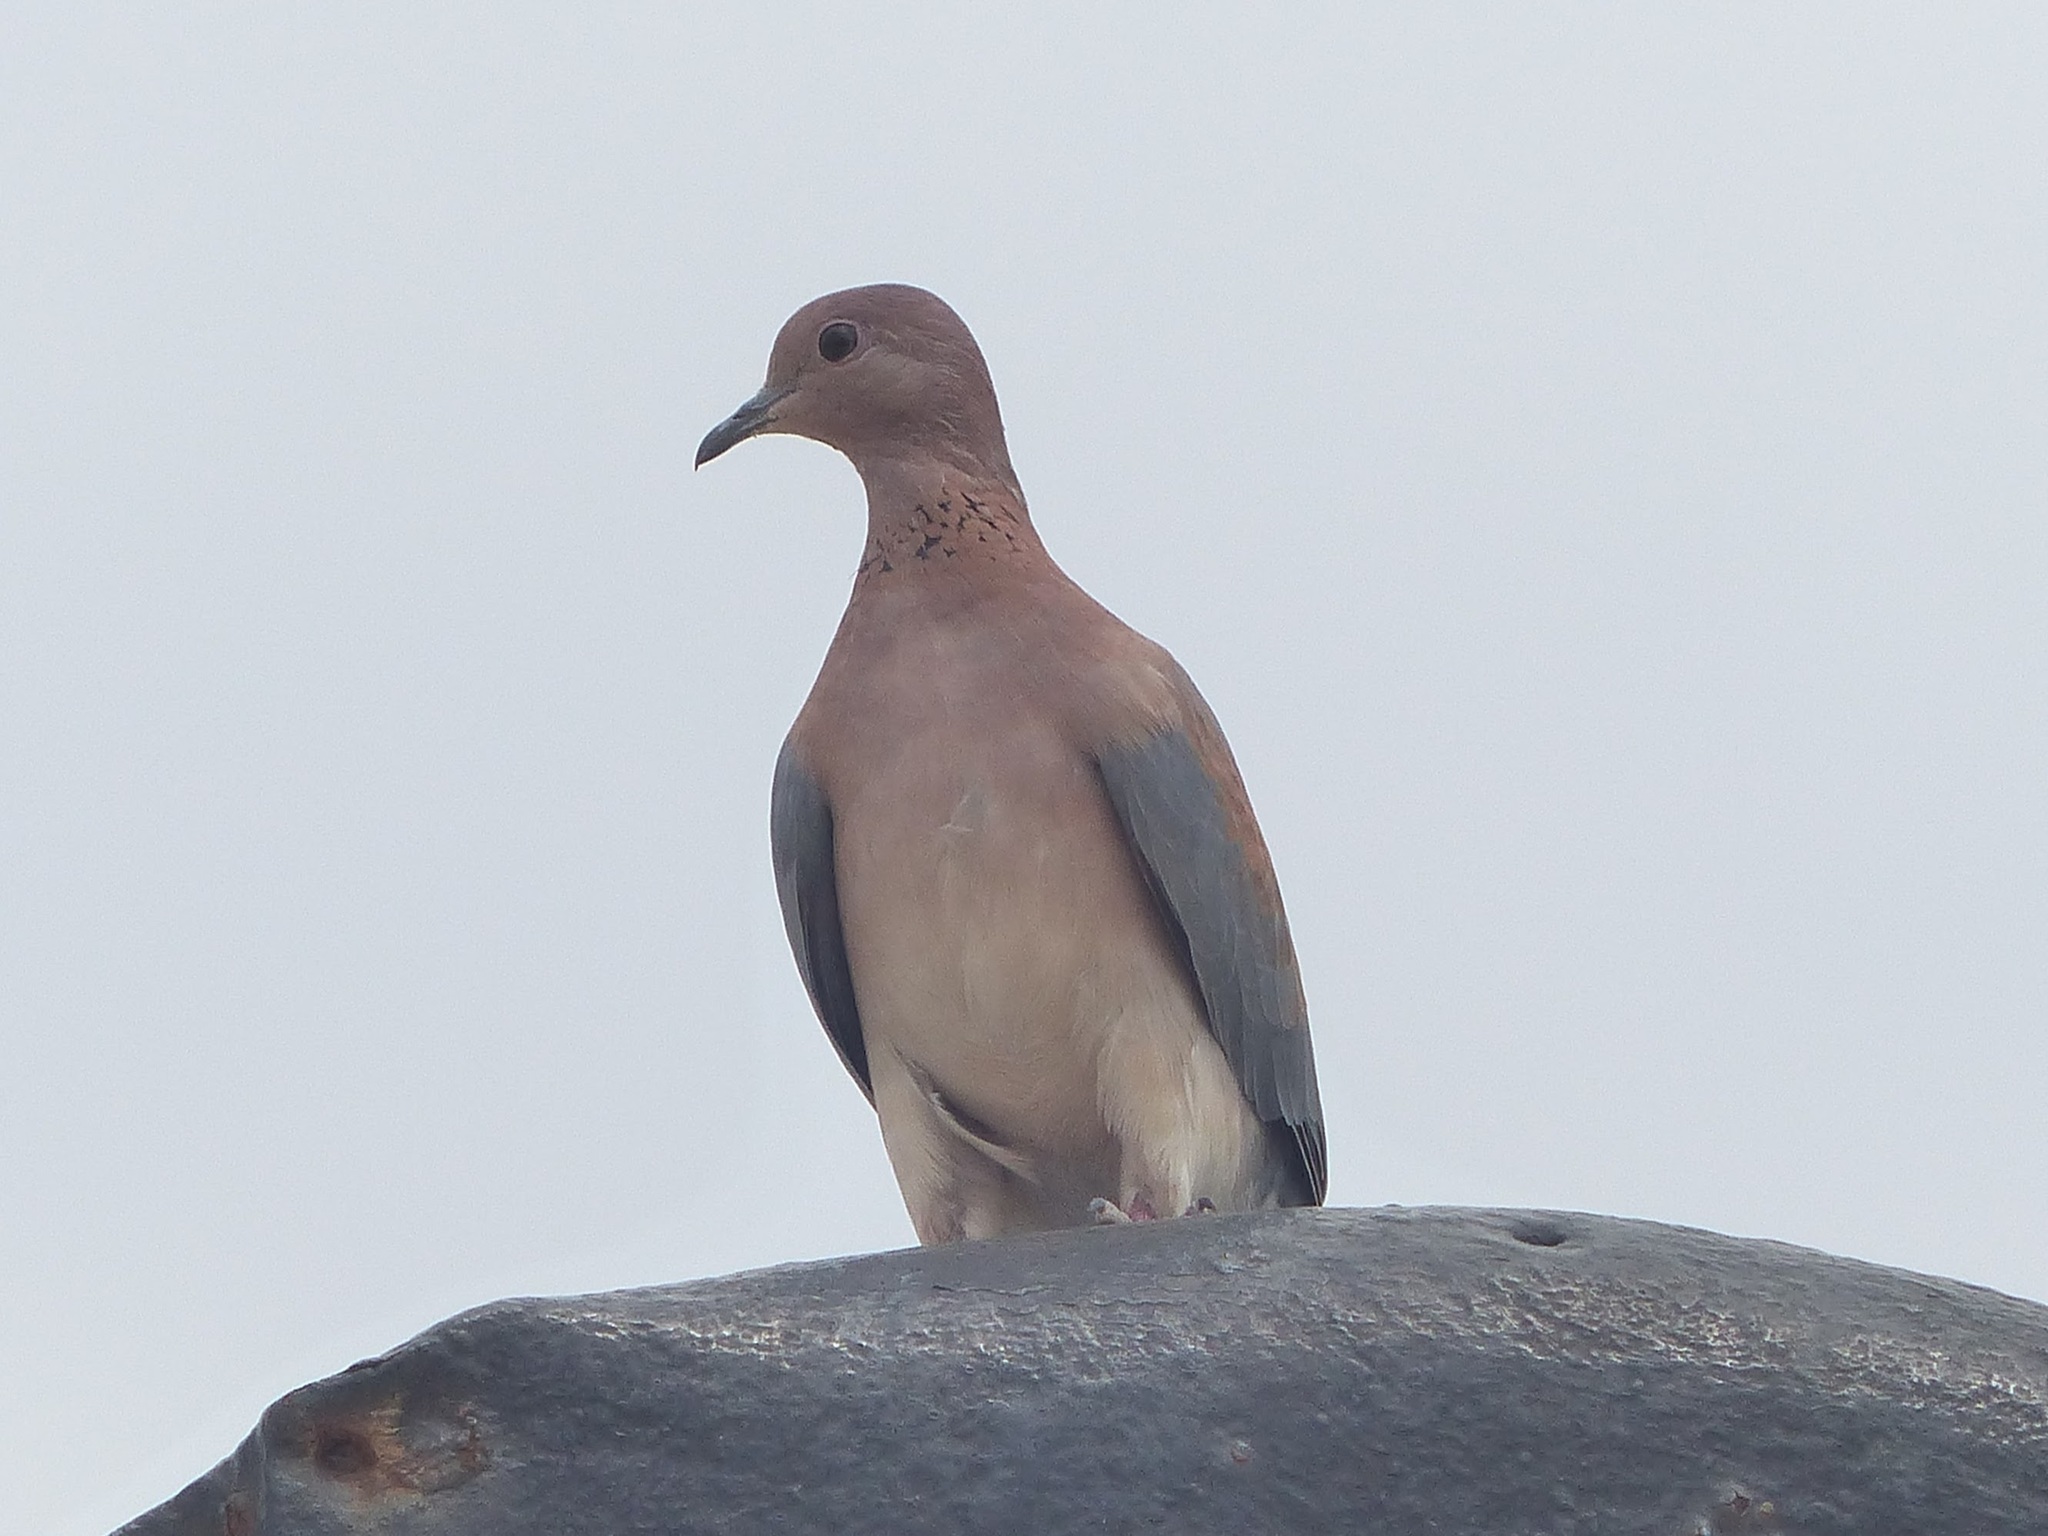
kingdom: Animalia
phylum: Chordata
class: Aves
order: Columbiformes
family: Columbidae
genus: Spilopelia
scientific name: Spilopelia senegalensis
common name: Laughing dove
